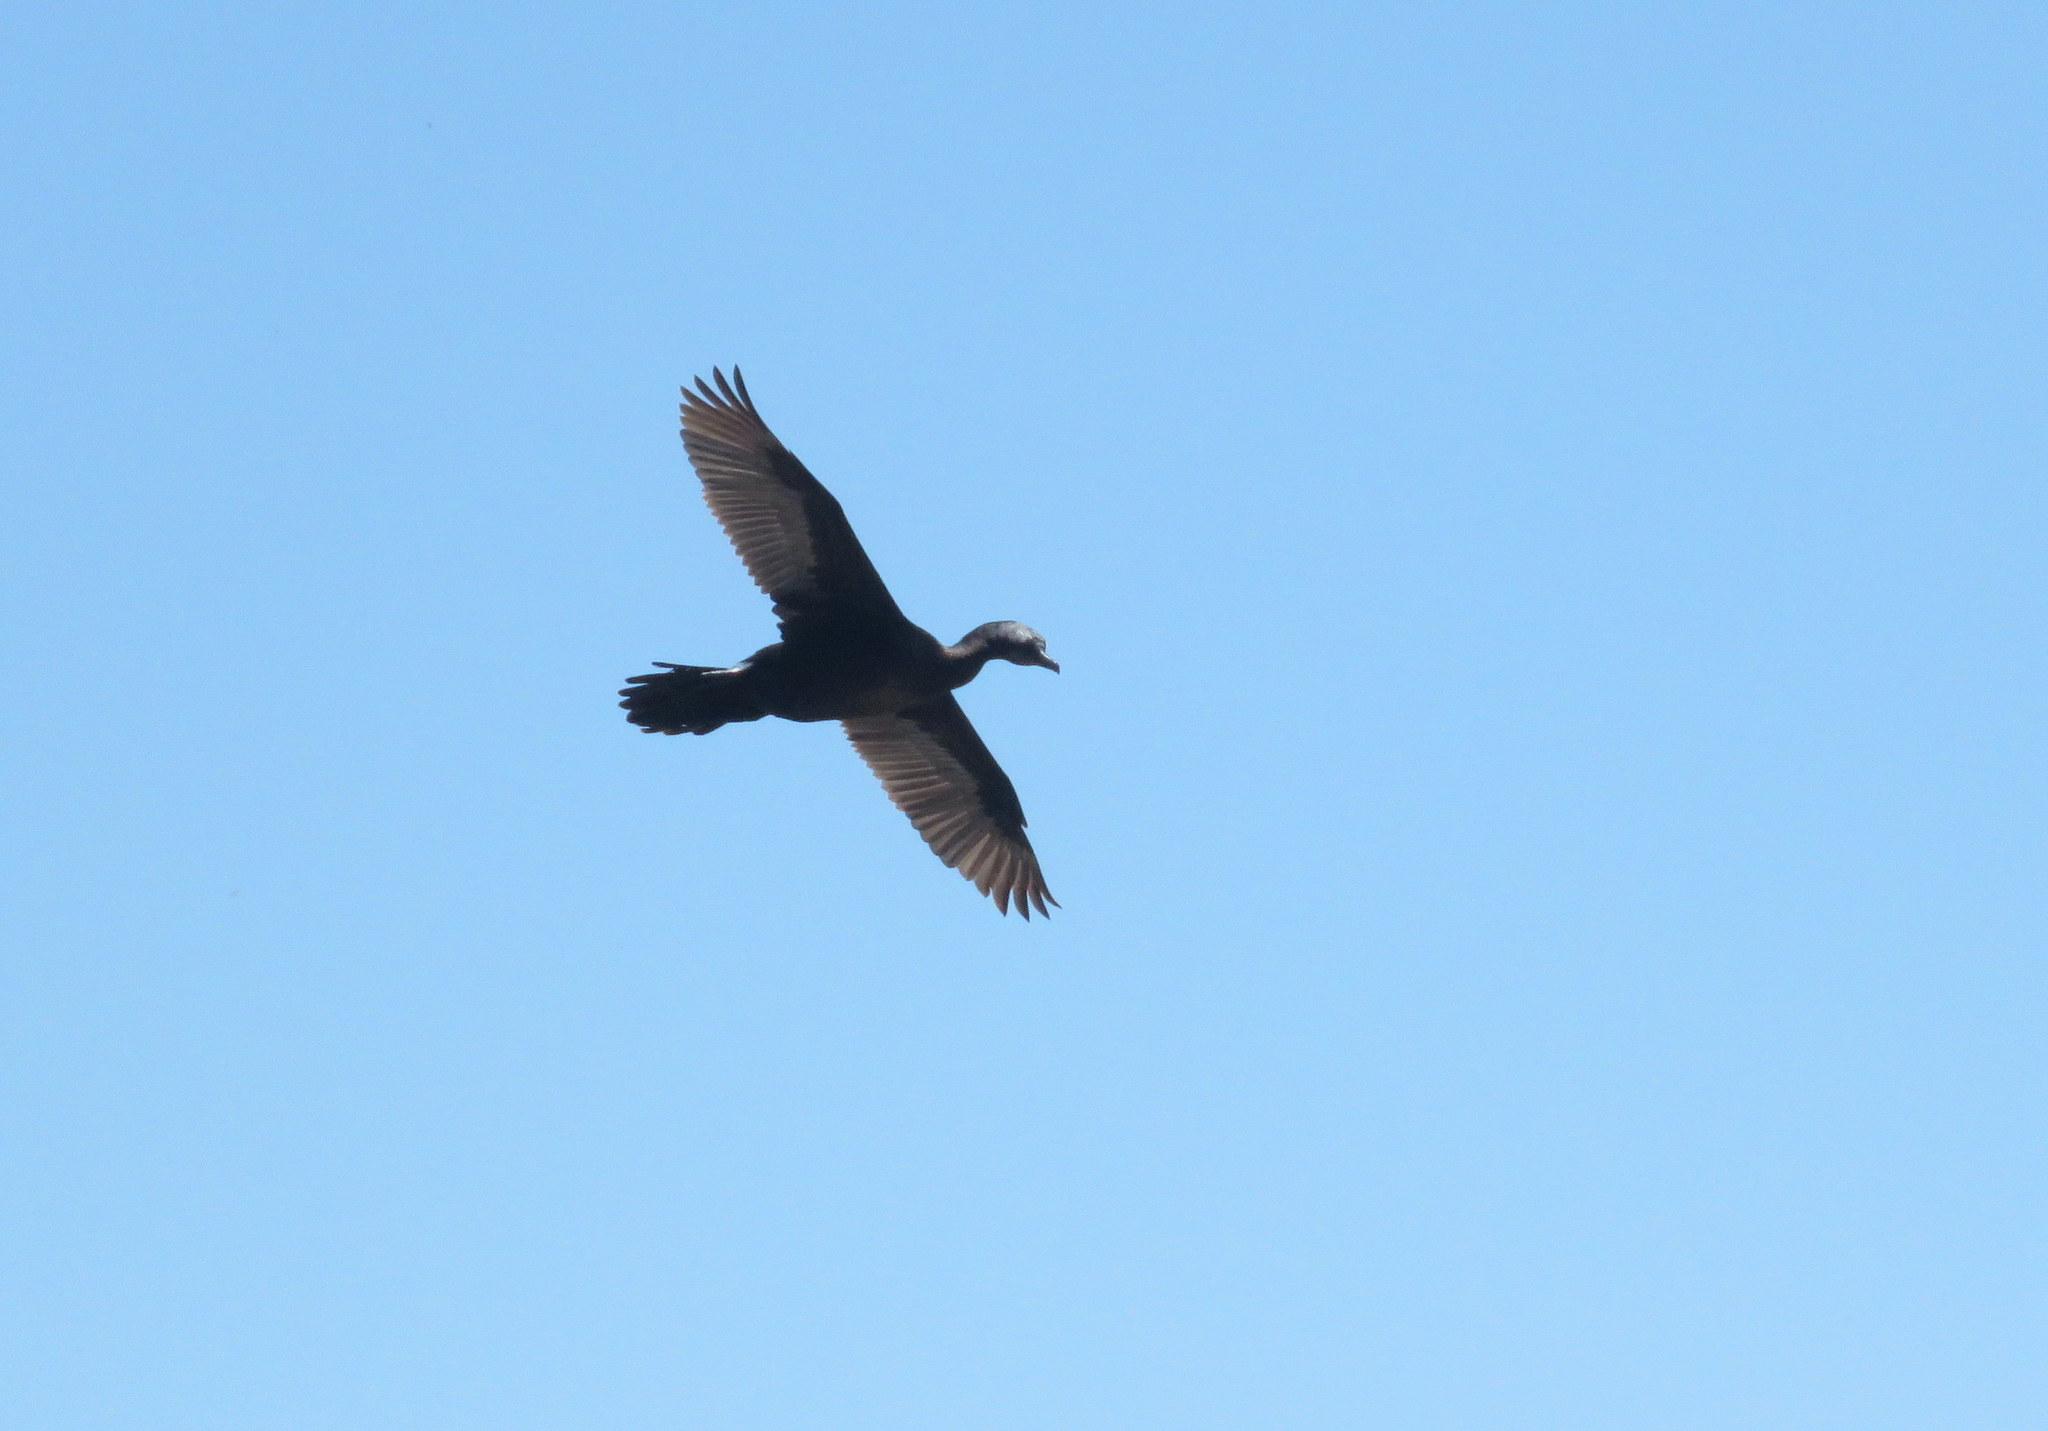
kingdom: Animalia
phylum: Chordata
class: Aves
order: Suliformes
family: Phalacrocoracidae
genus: Phalacrocorax
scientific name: Phalacrocorax brasilianus
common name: Neotropic cormorant
